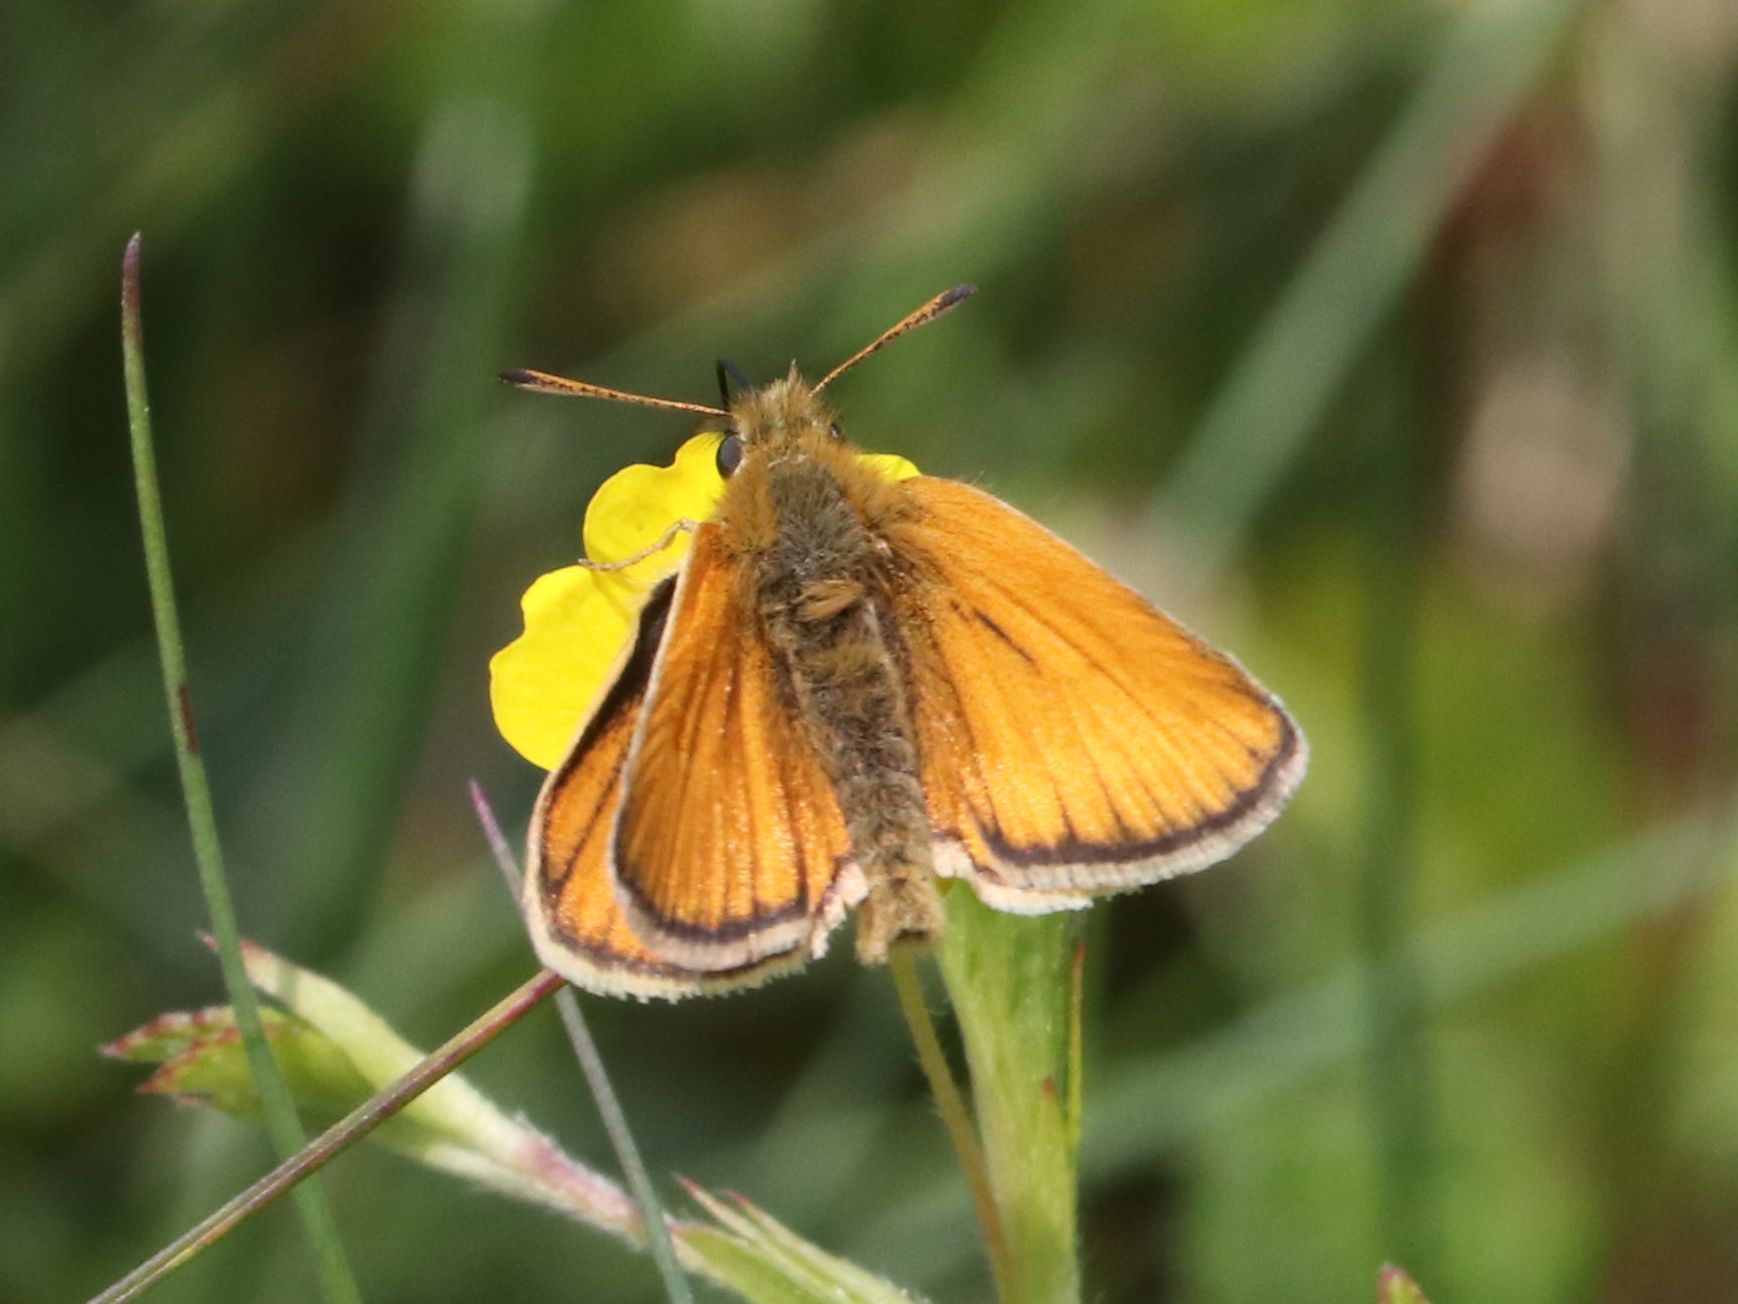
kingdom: Animalia
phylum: Arthropoda
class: Insecta
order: Lepidoptera
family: Hesperiidae
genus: Thymelicus
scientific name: Thymelicus lineola
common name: Essex skipper
